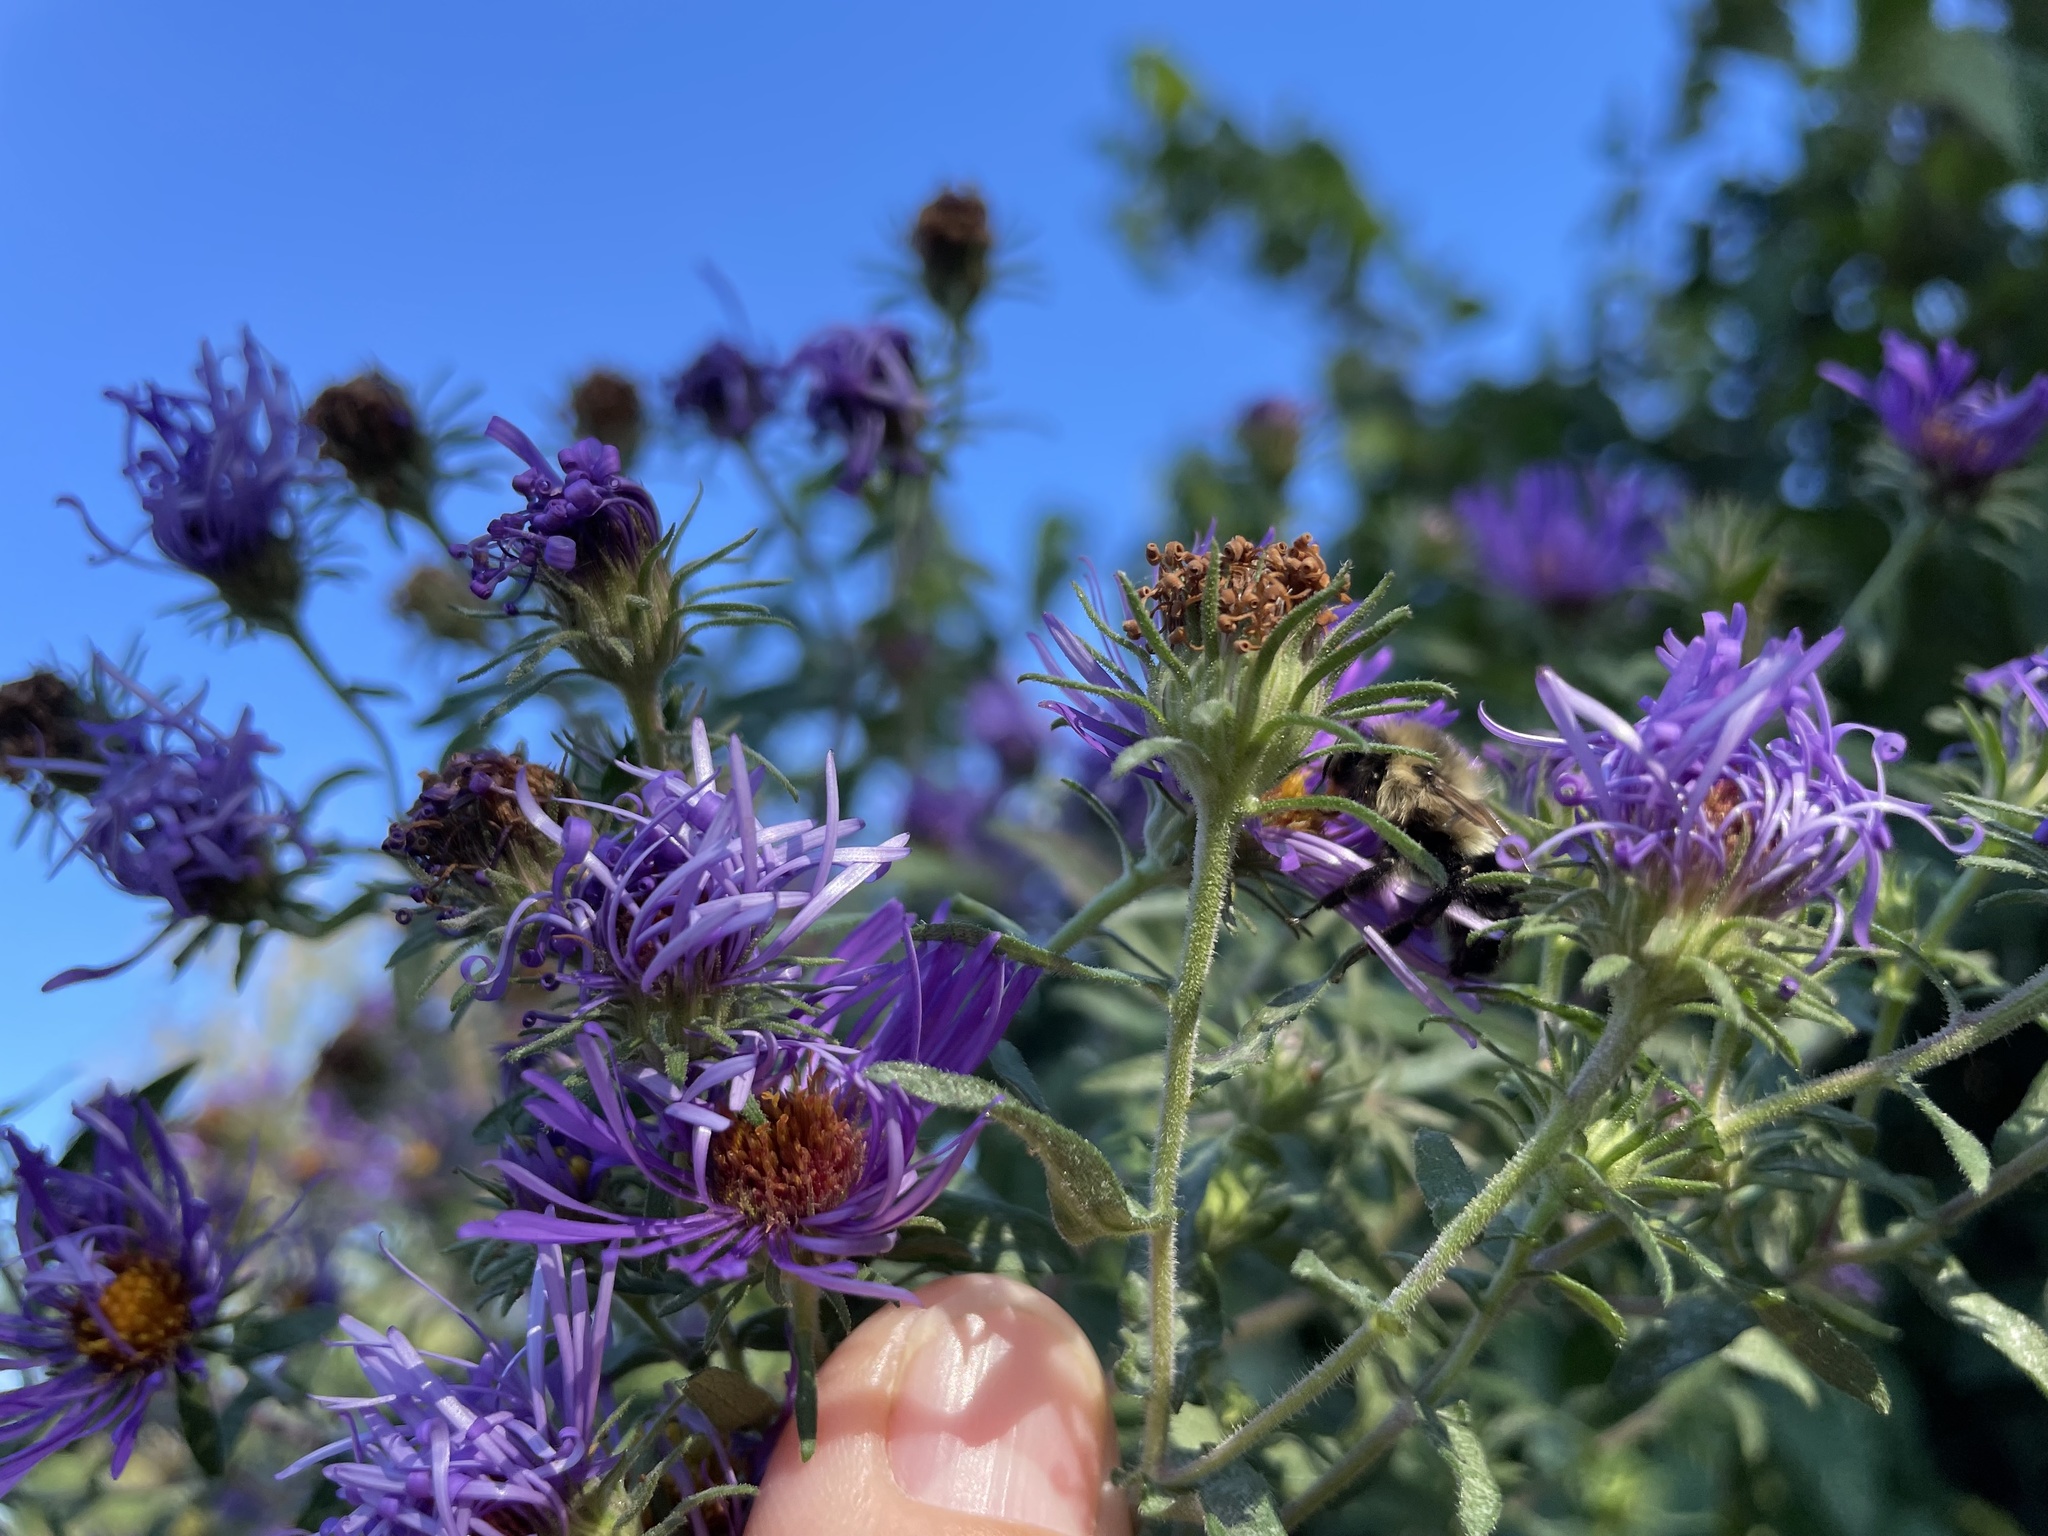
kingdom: Animalia
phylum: Arthropoda
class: Insecta
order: Hymenoptera
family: Apidae
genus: Bombus
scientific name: Bombus impatiens
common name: Common eastern bumble bee
